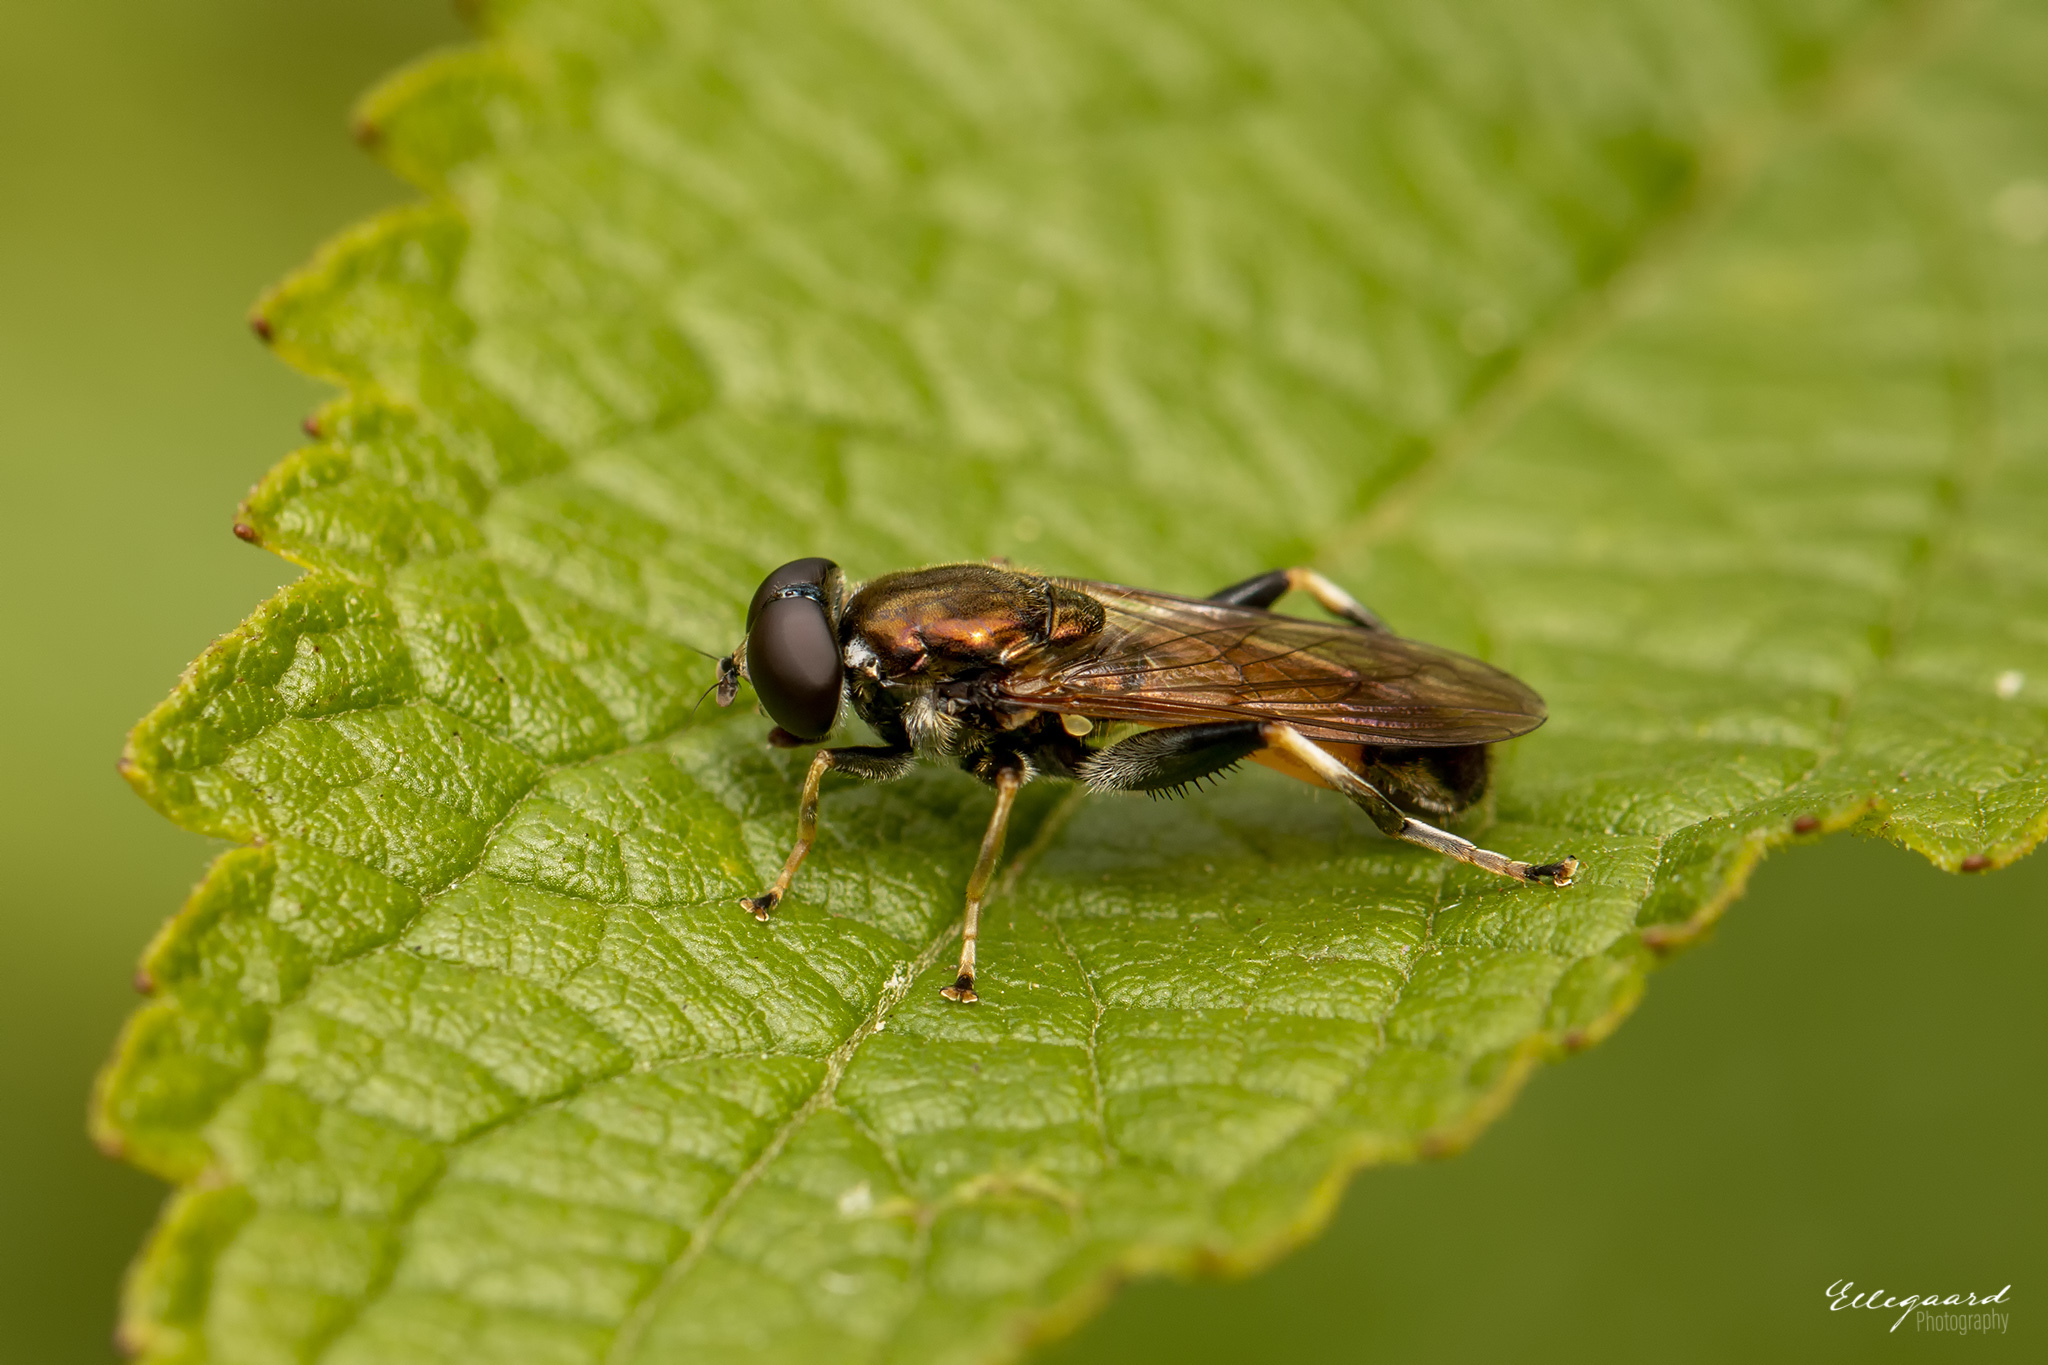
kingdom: Animalia
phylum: Arthropoda
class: Insecta
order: Diptera
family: Syrphidae
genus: Xylota
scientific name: Xylota segnis
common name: Brown-toed forest fly
